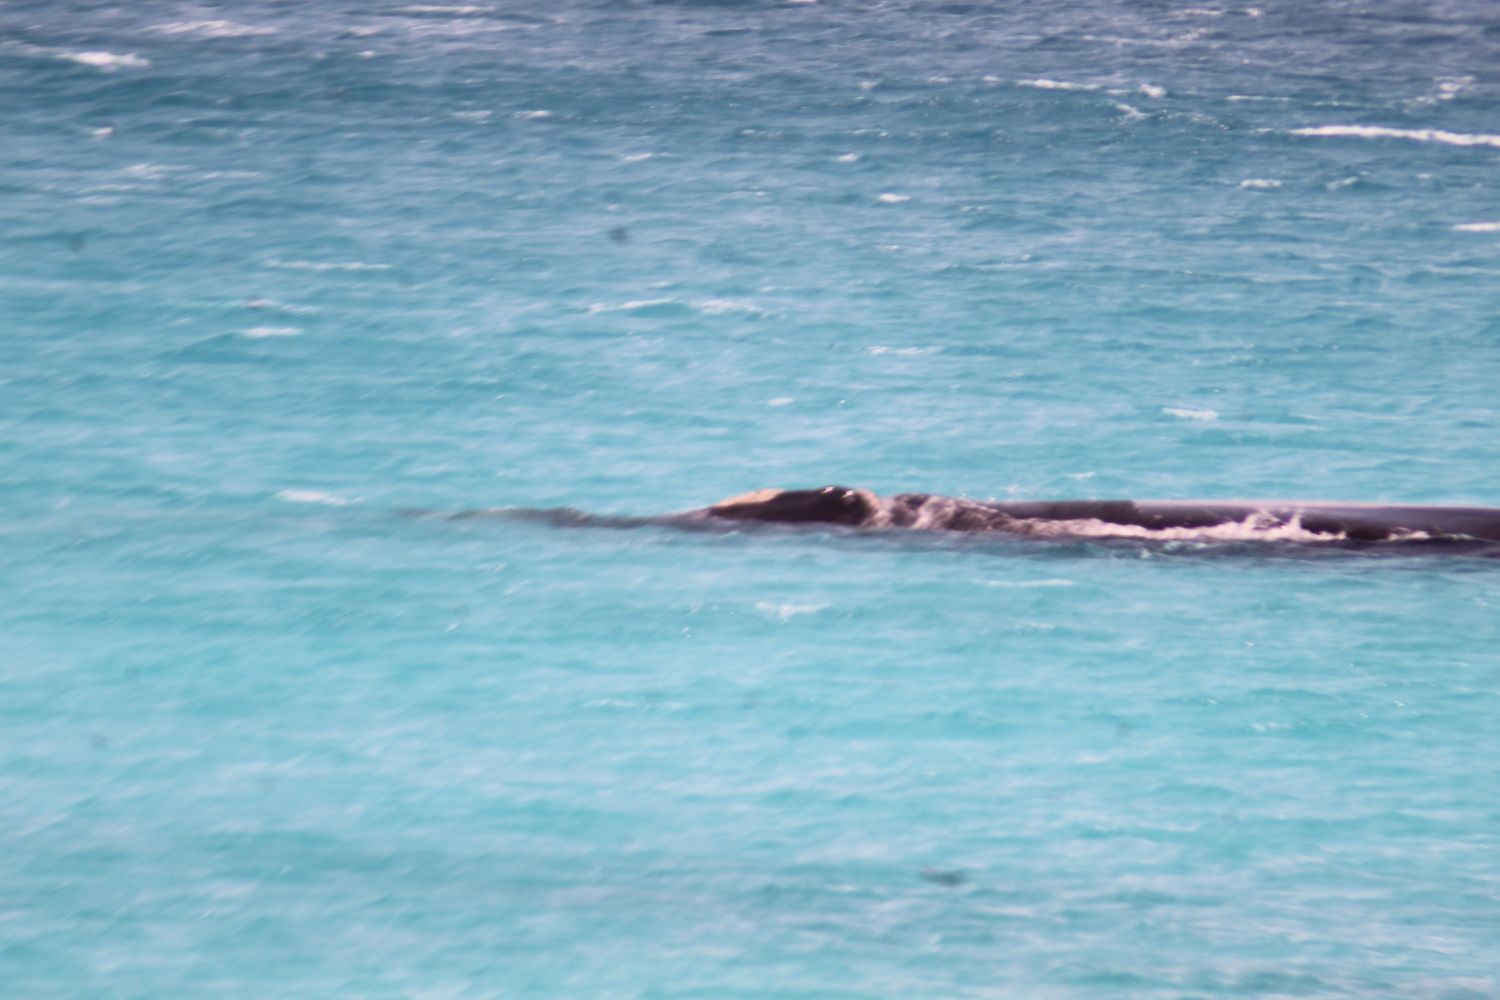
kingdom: Animalia
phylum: Chordata
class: Mammalia
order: Cetacea
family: Balaenidae
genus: Eubalaena
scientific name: Eubalaena australis
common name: Southern right whale
